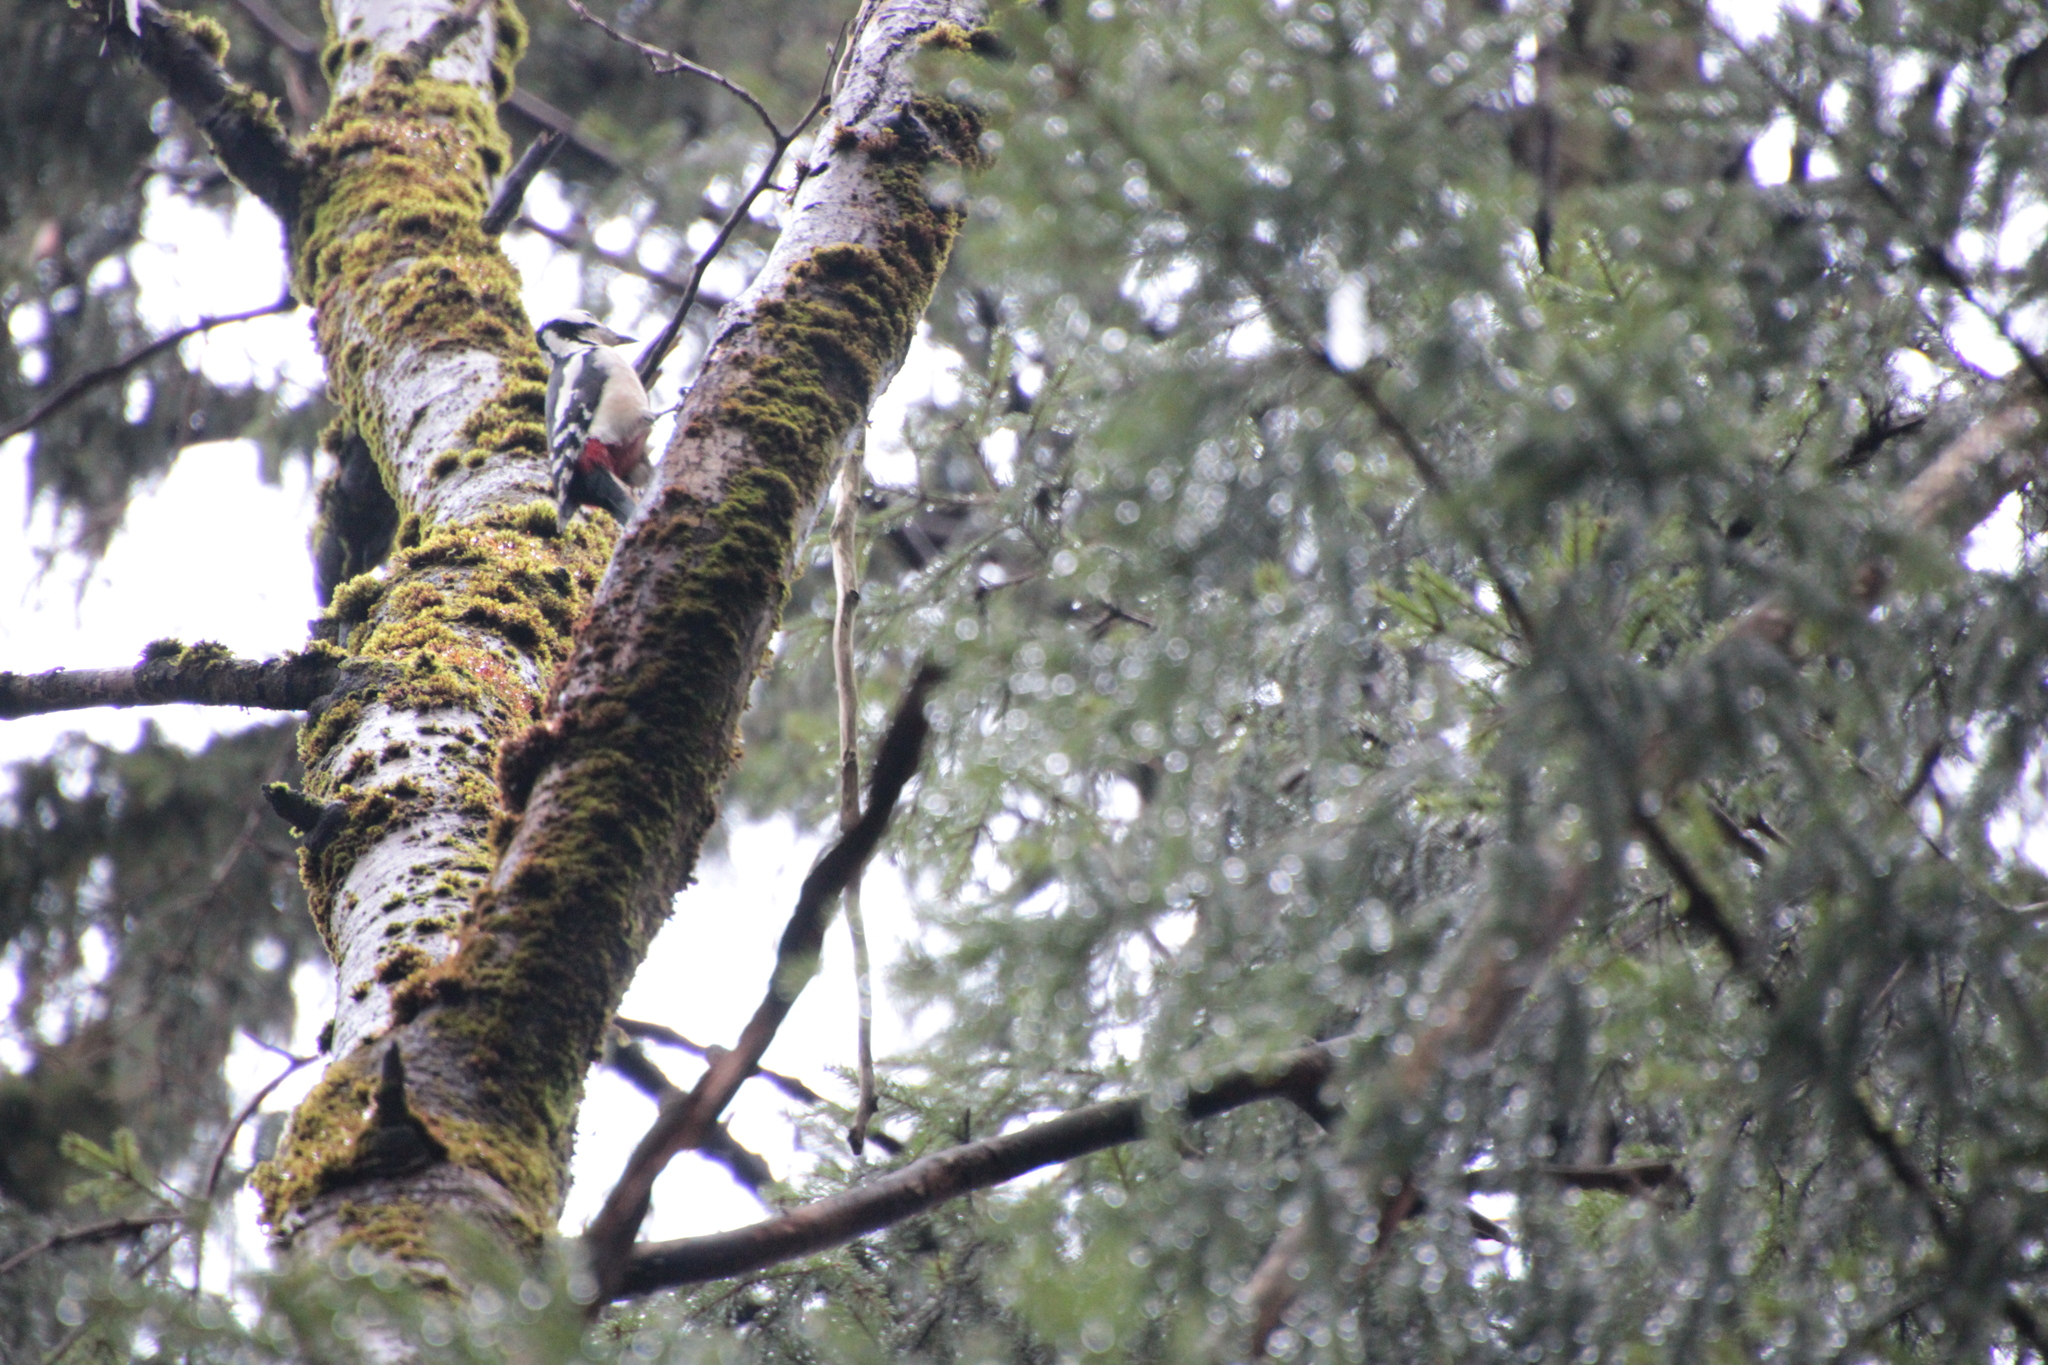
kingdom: Animalia
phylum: Chordata
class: Aves
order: Piciformes
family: Picidae
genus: Dendrocopos
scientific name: Dendrocopos major
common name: Great spotted woodpecker
